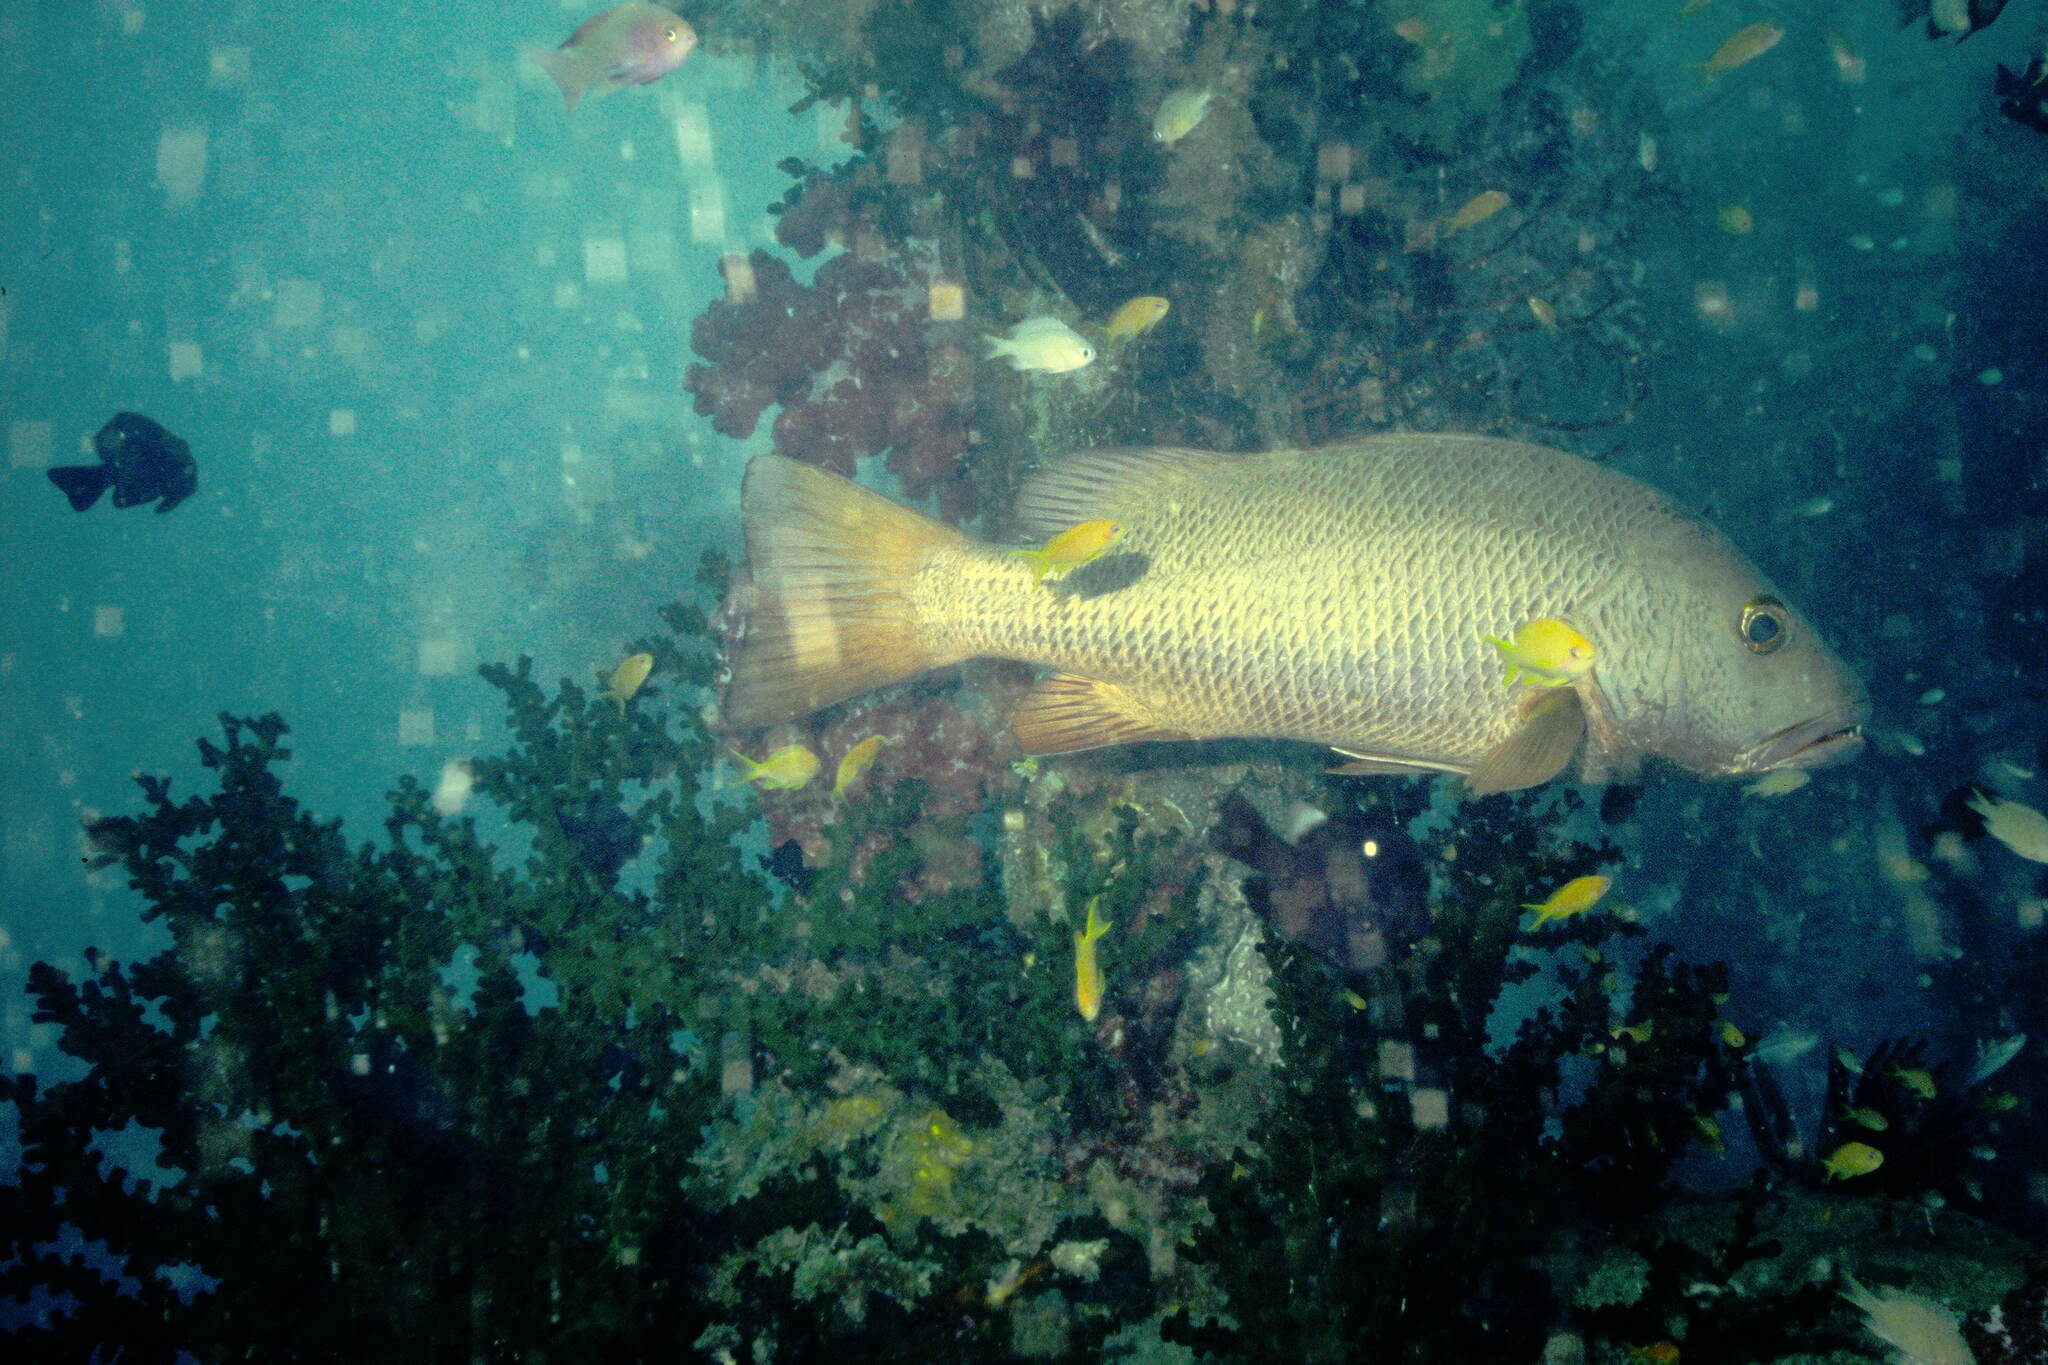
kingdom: Animalia
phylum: Chordata
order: Perciformes
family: Lutjanidae
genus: Lutjanus
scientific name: Lutjanus argentimaculatus
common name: Mangrove red snapper
